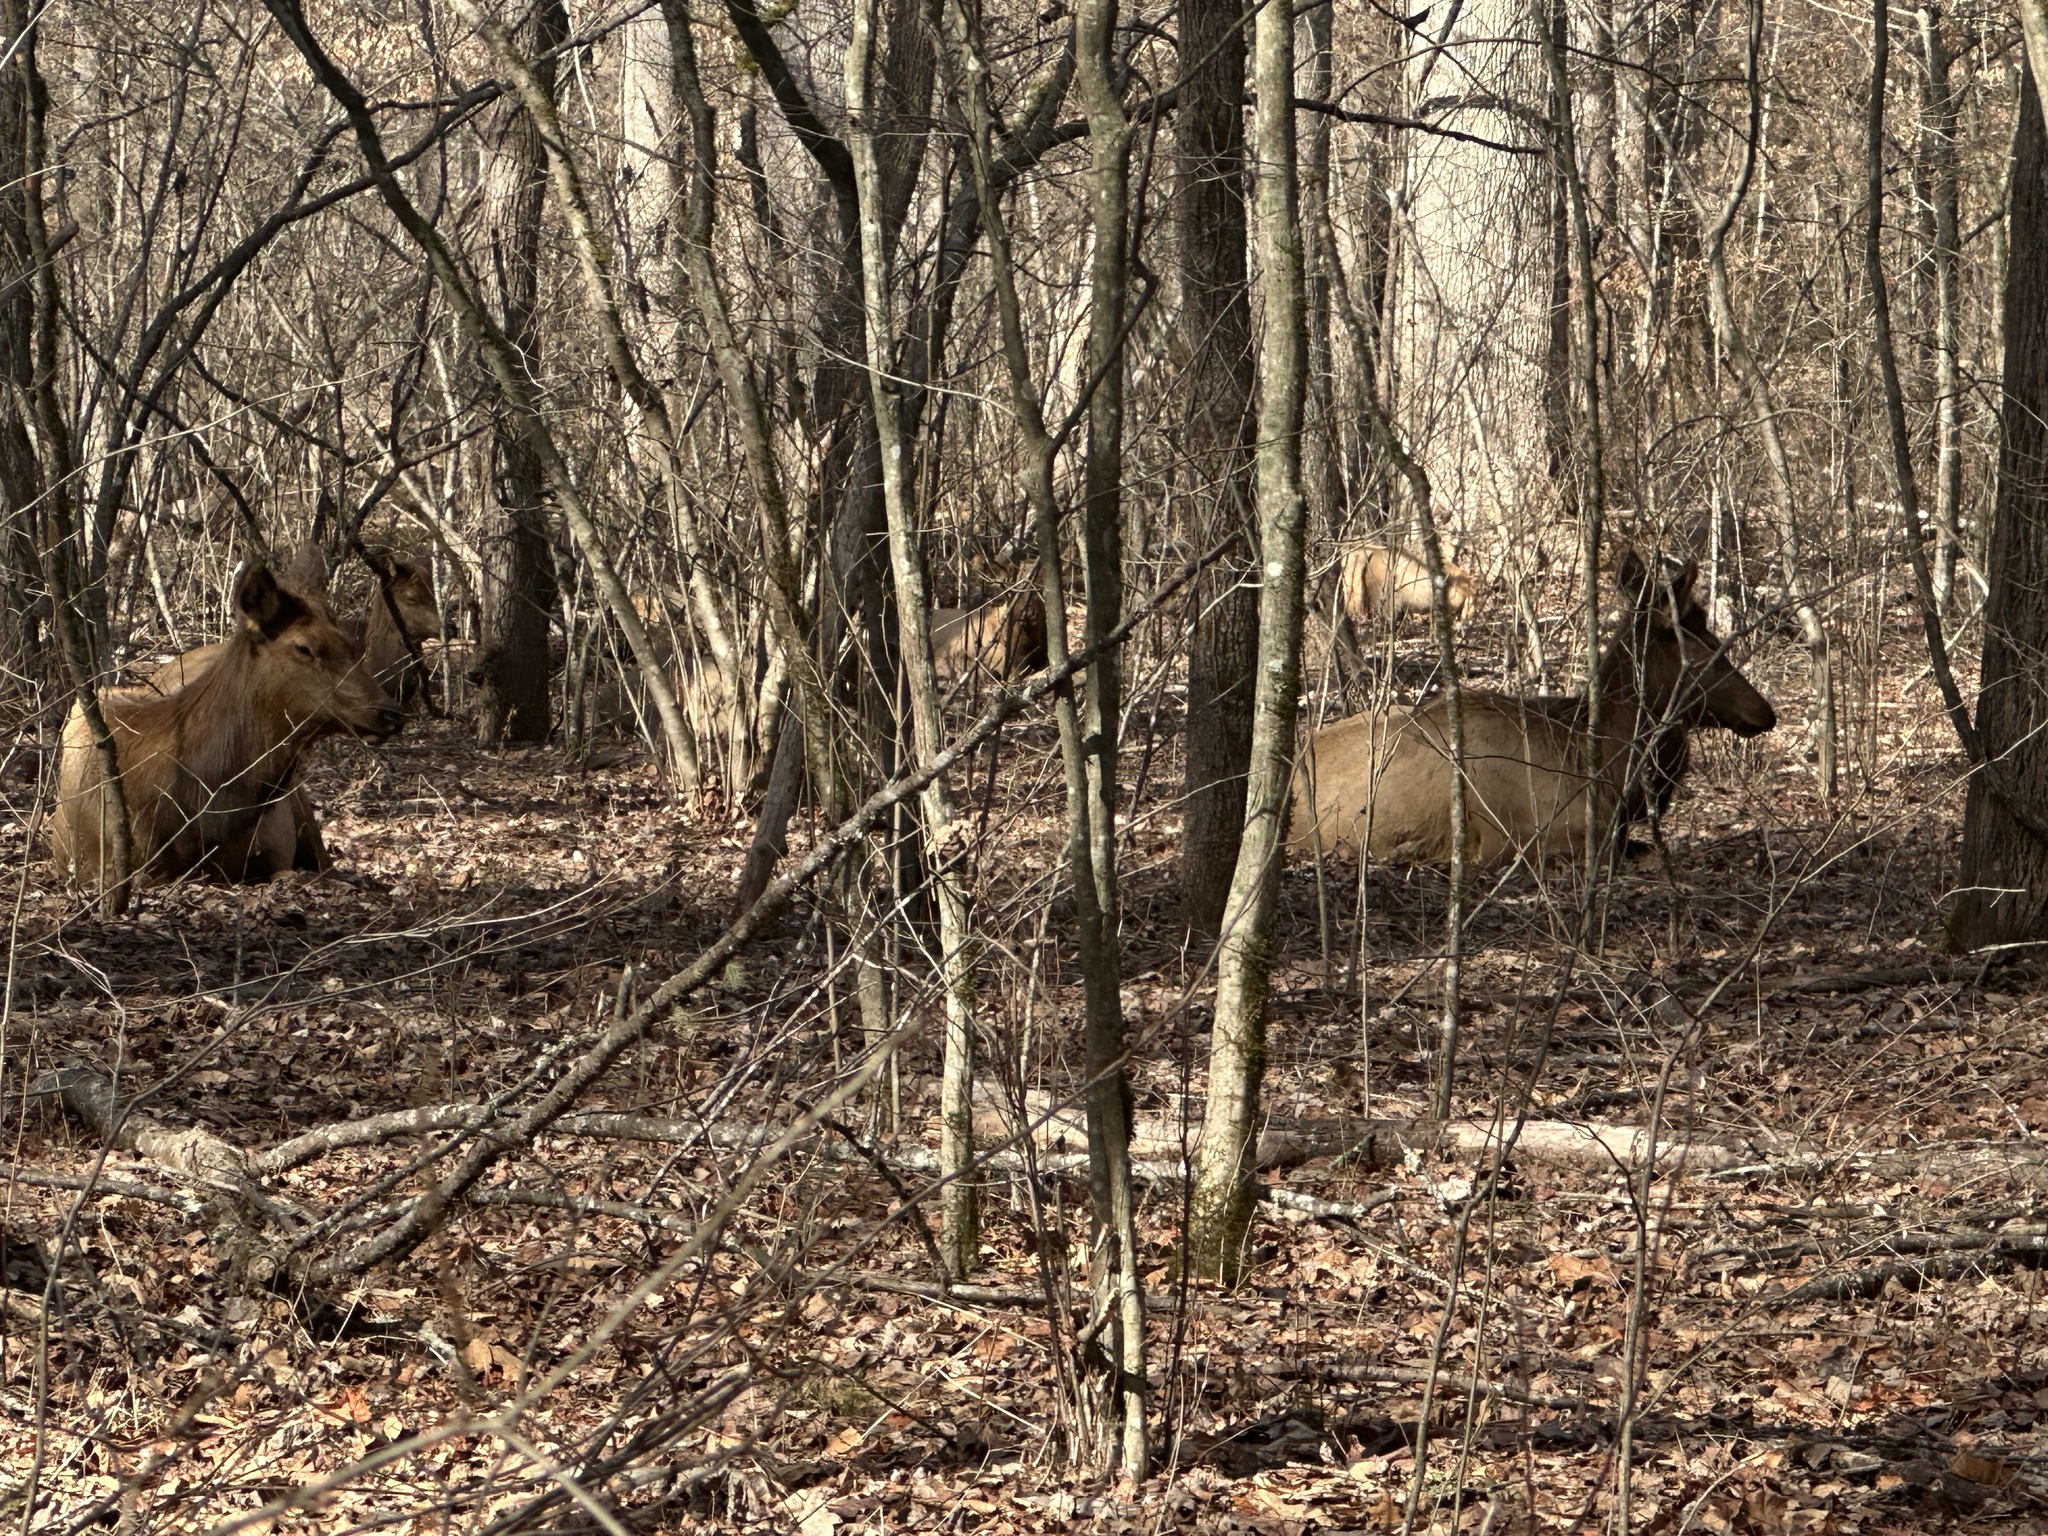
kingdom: Animalia
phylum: Chordata
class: Mammalia
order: Artiodactyla
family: Cervidae
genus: Cervus
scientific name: Cervus elaphus
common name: Red deer
